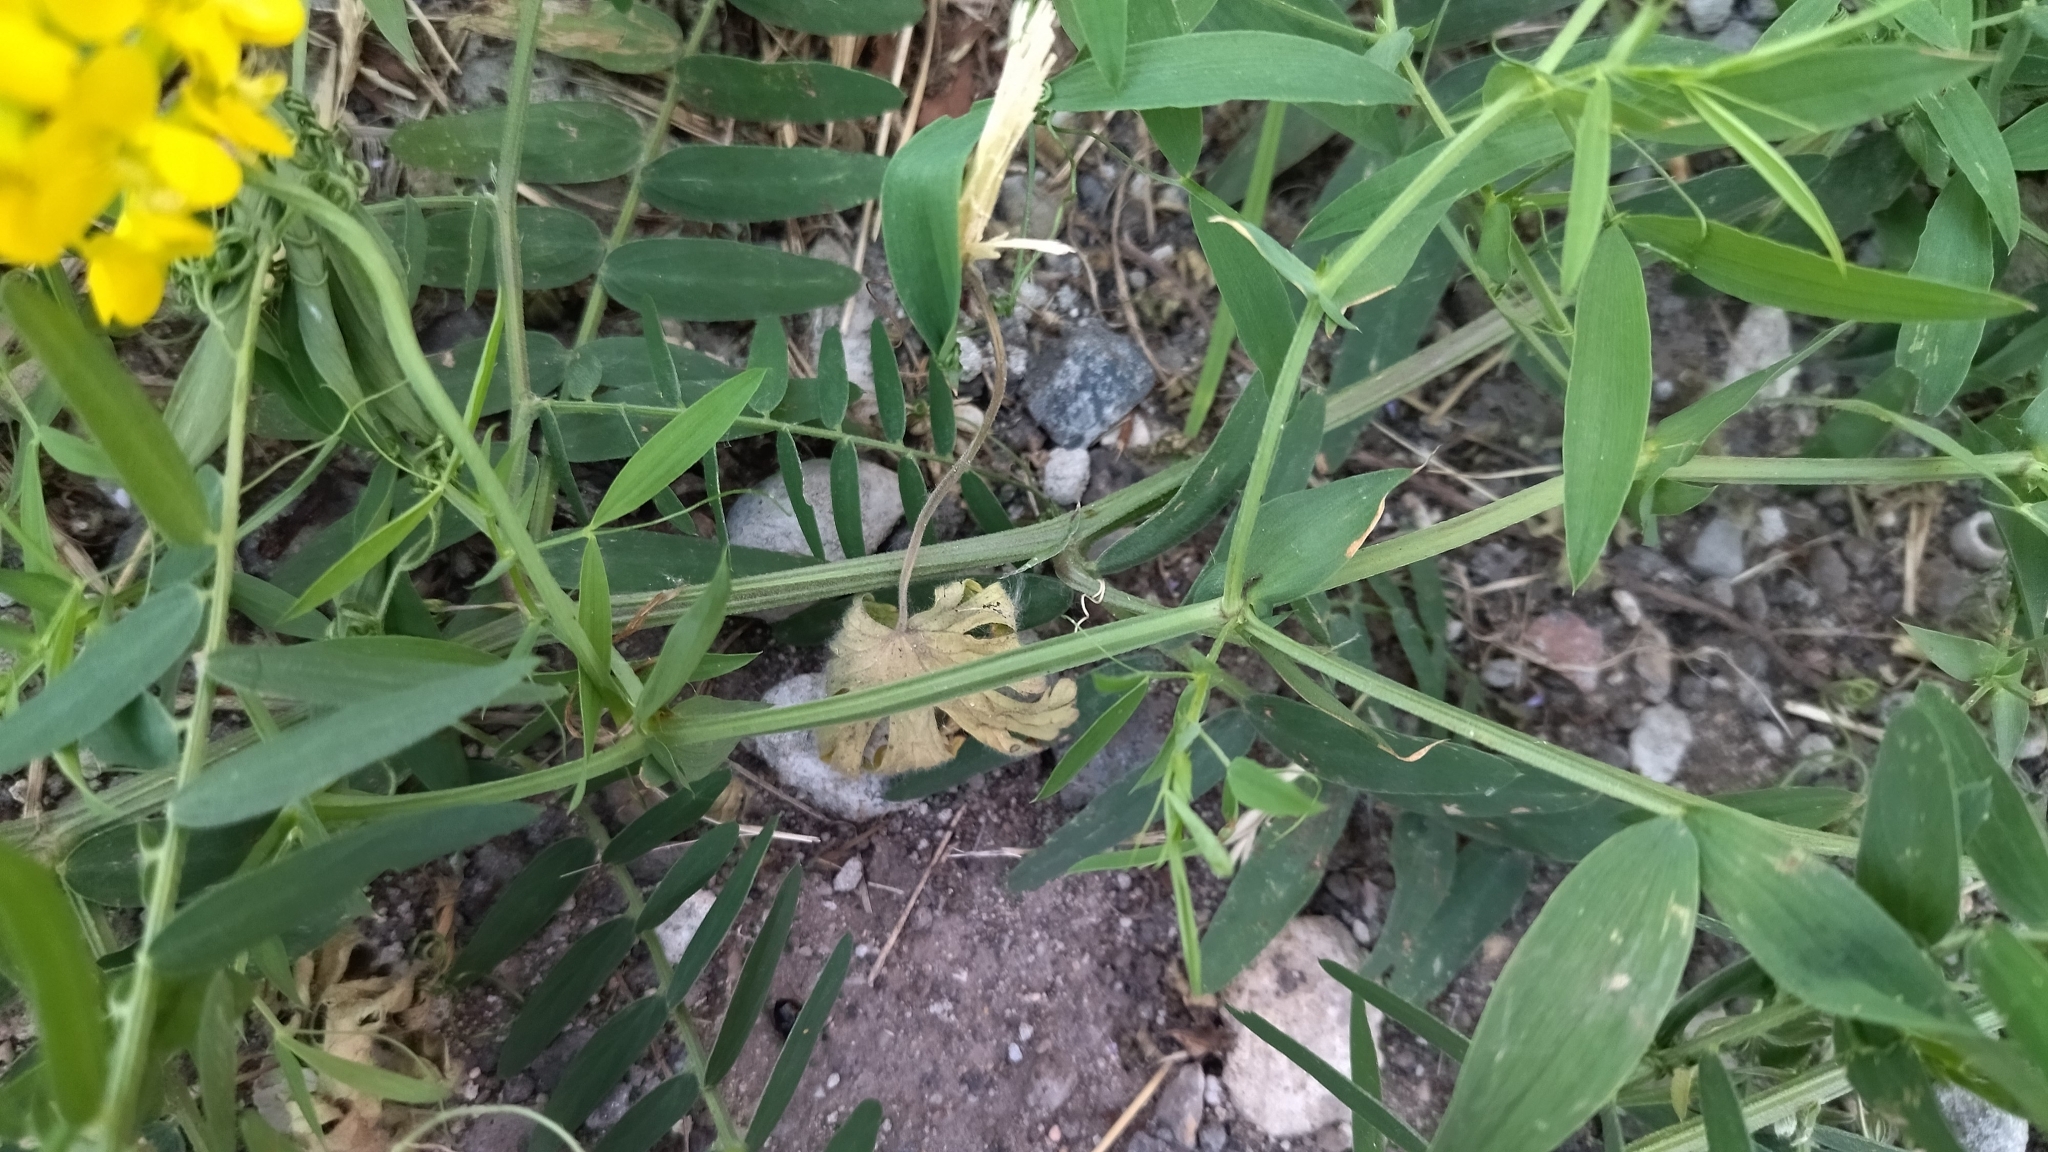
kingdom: Plantae
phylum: Tracheophyta
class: Magnoliopsida
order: Fabales
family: Fabaceae
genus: Lathyrus
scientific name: Lathyrus pratensis
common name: Meadow vetchling
